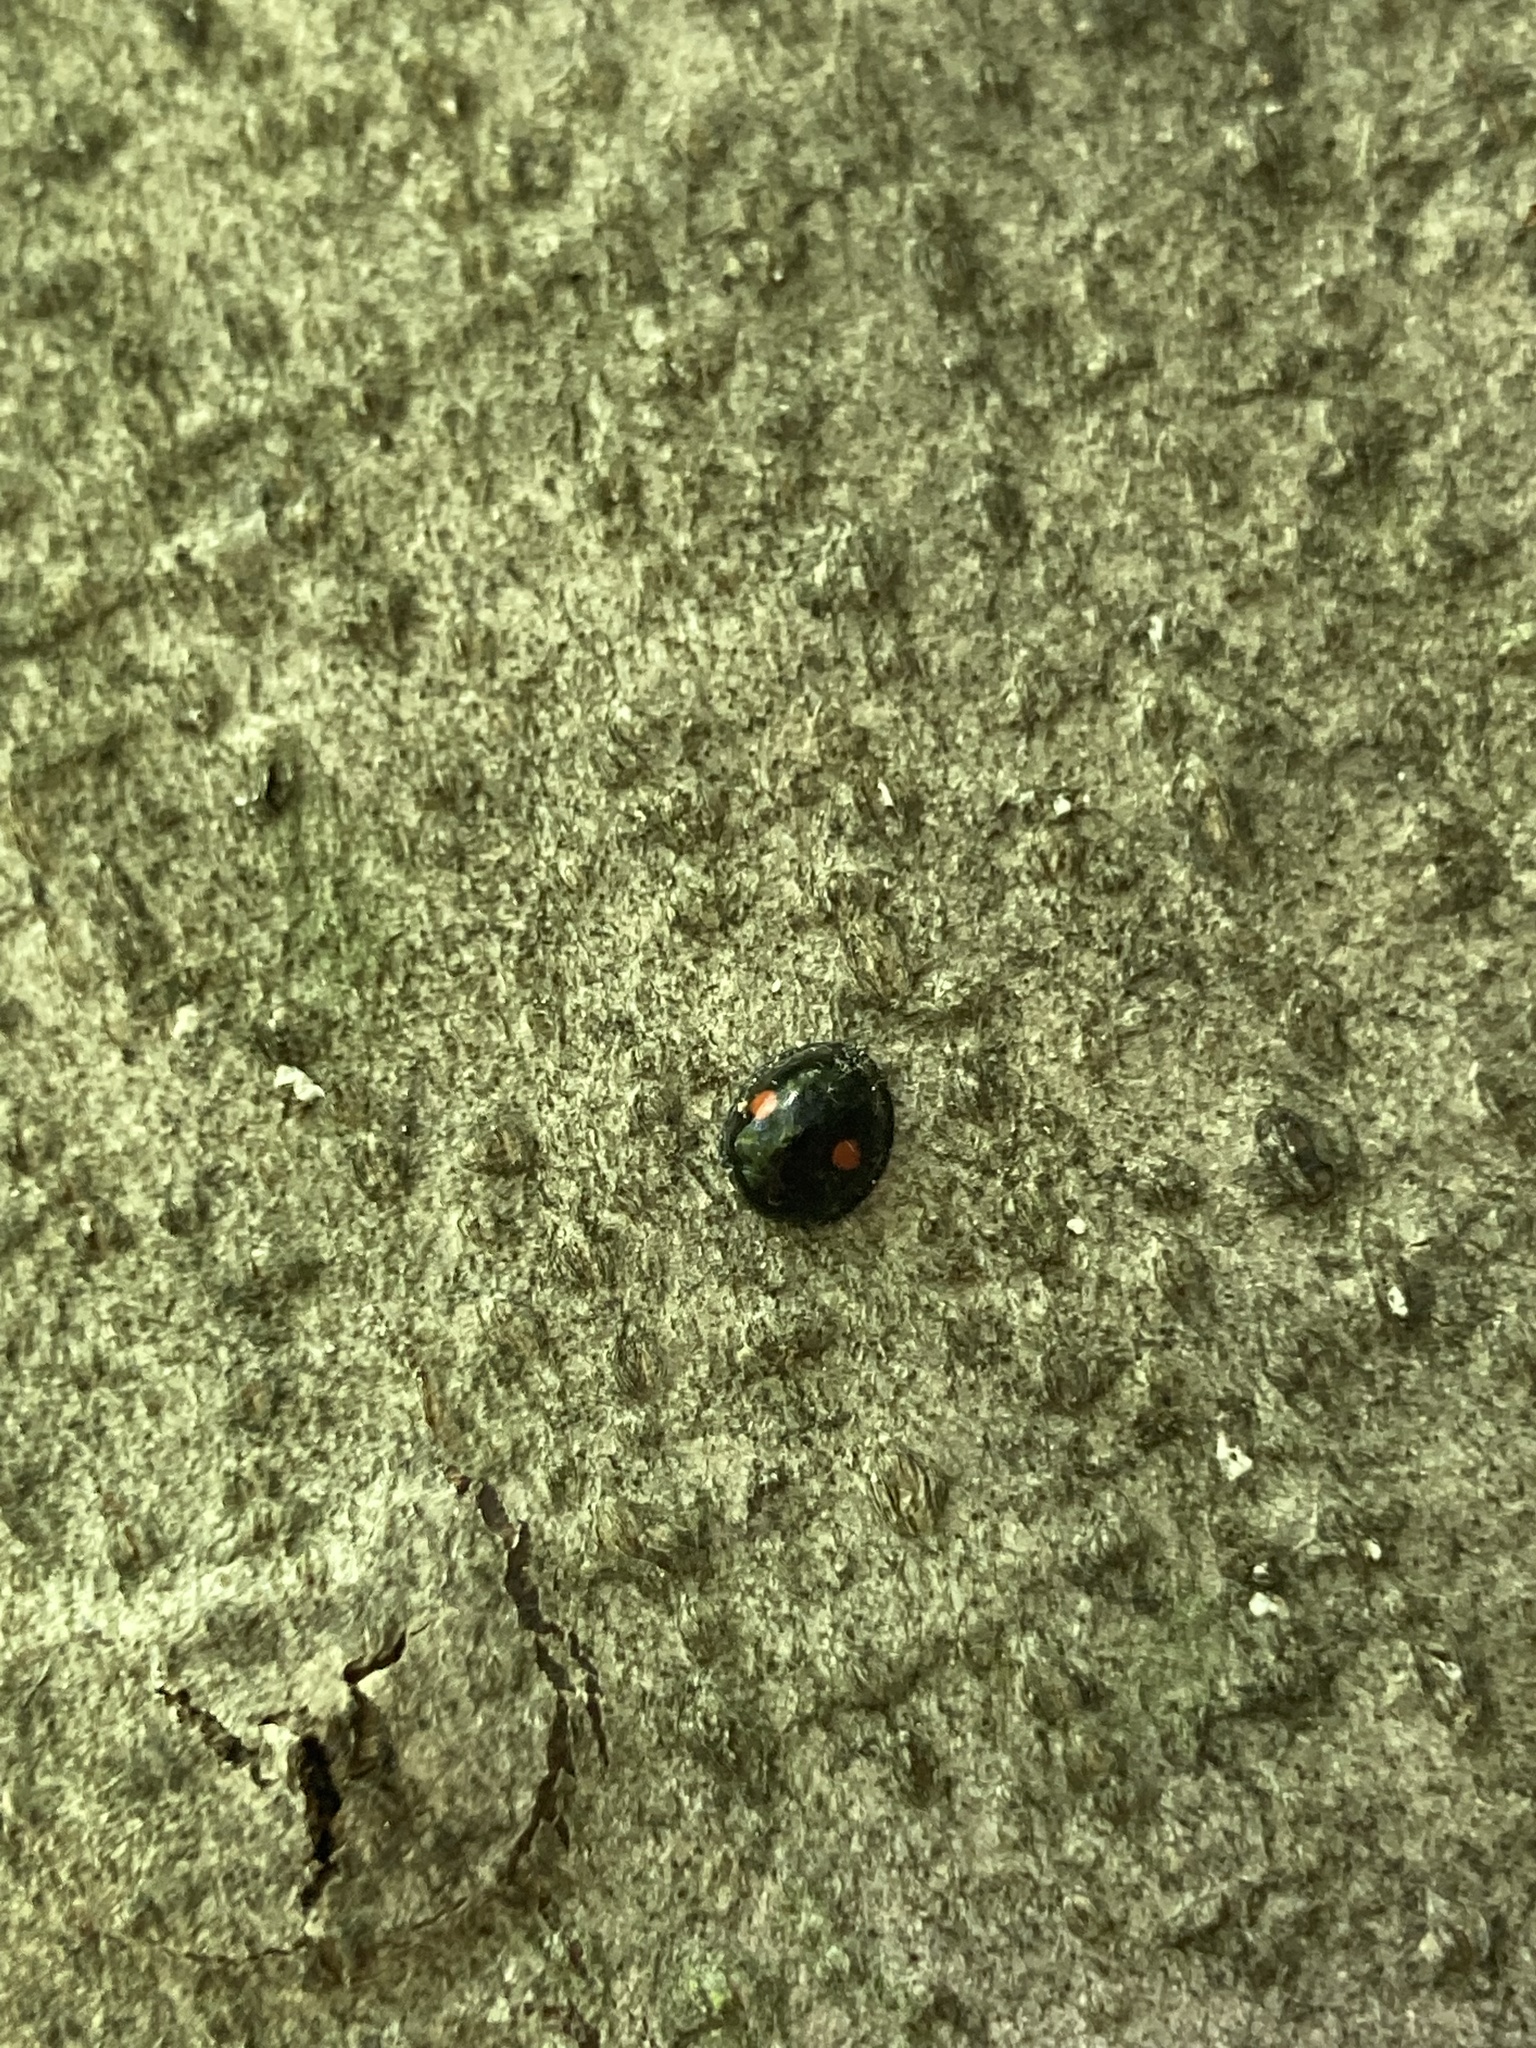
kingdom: Animalia
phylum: Arthropoda
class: Insecta
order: Coleoptera
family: Coccinellidae
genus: Chilocorus
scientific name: Chilocorus stigma
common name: Twicestabbed lady beetle
